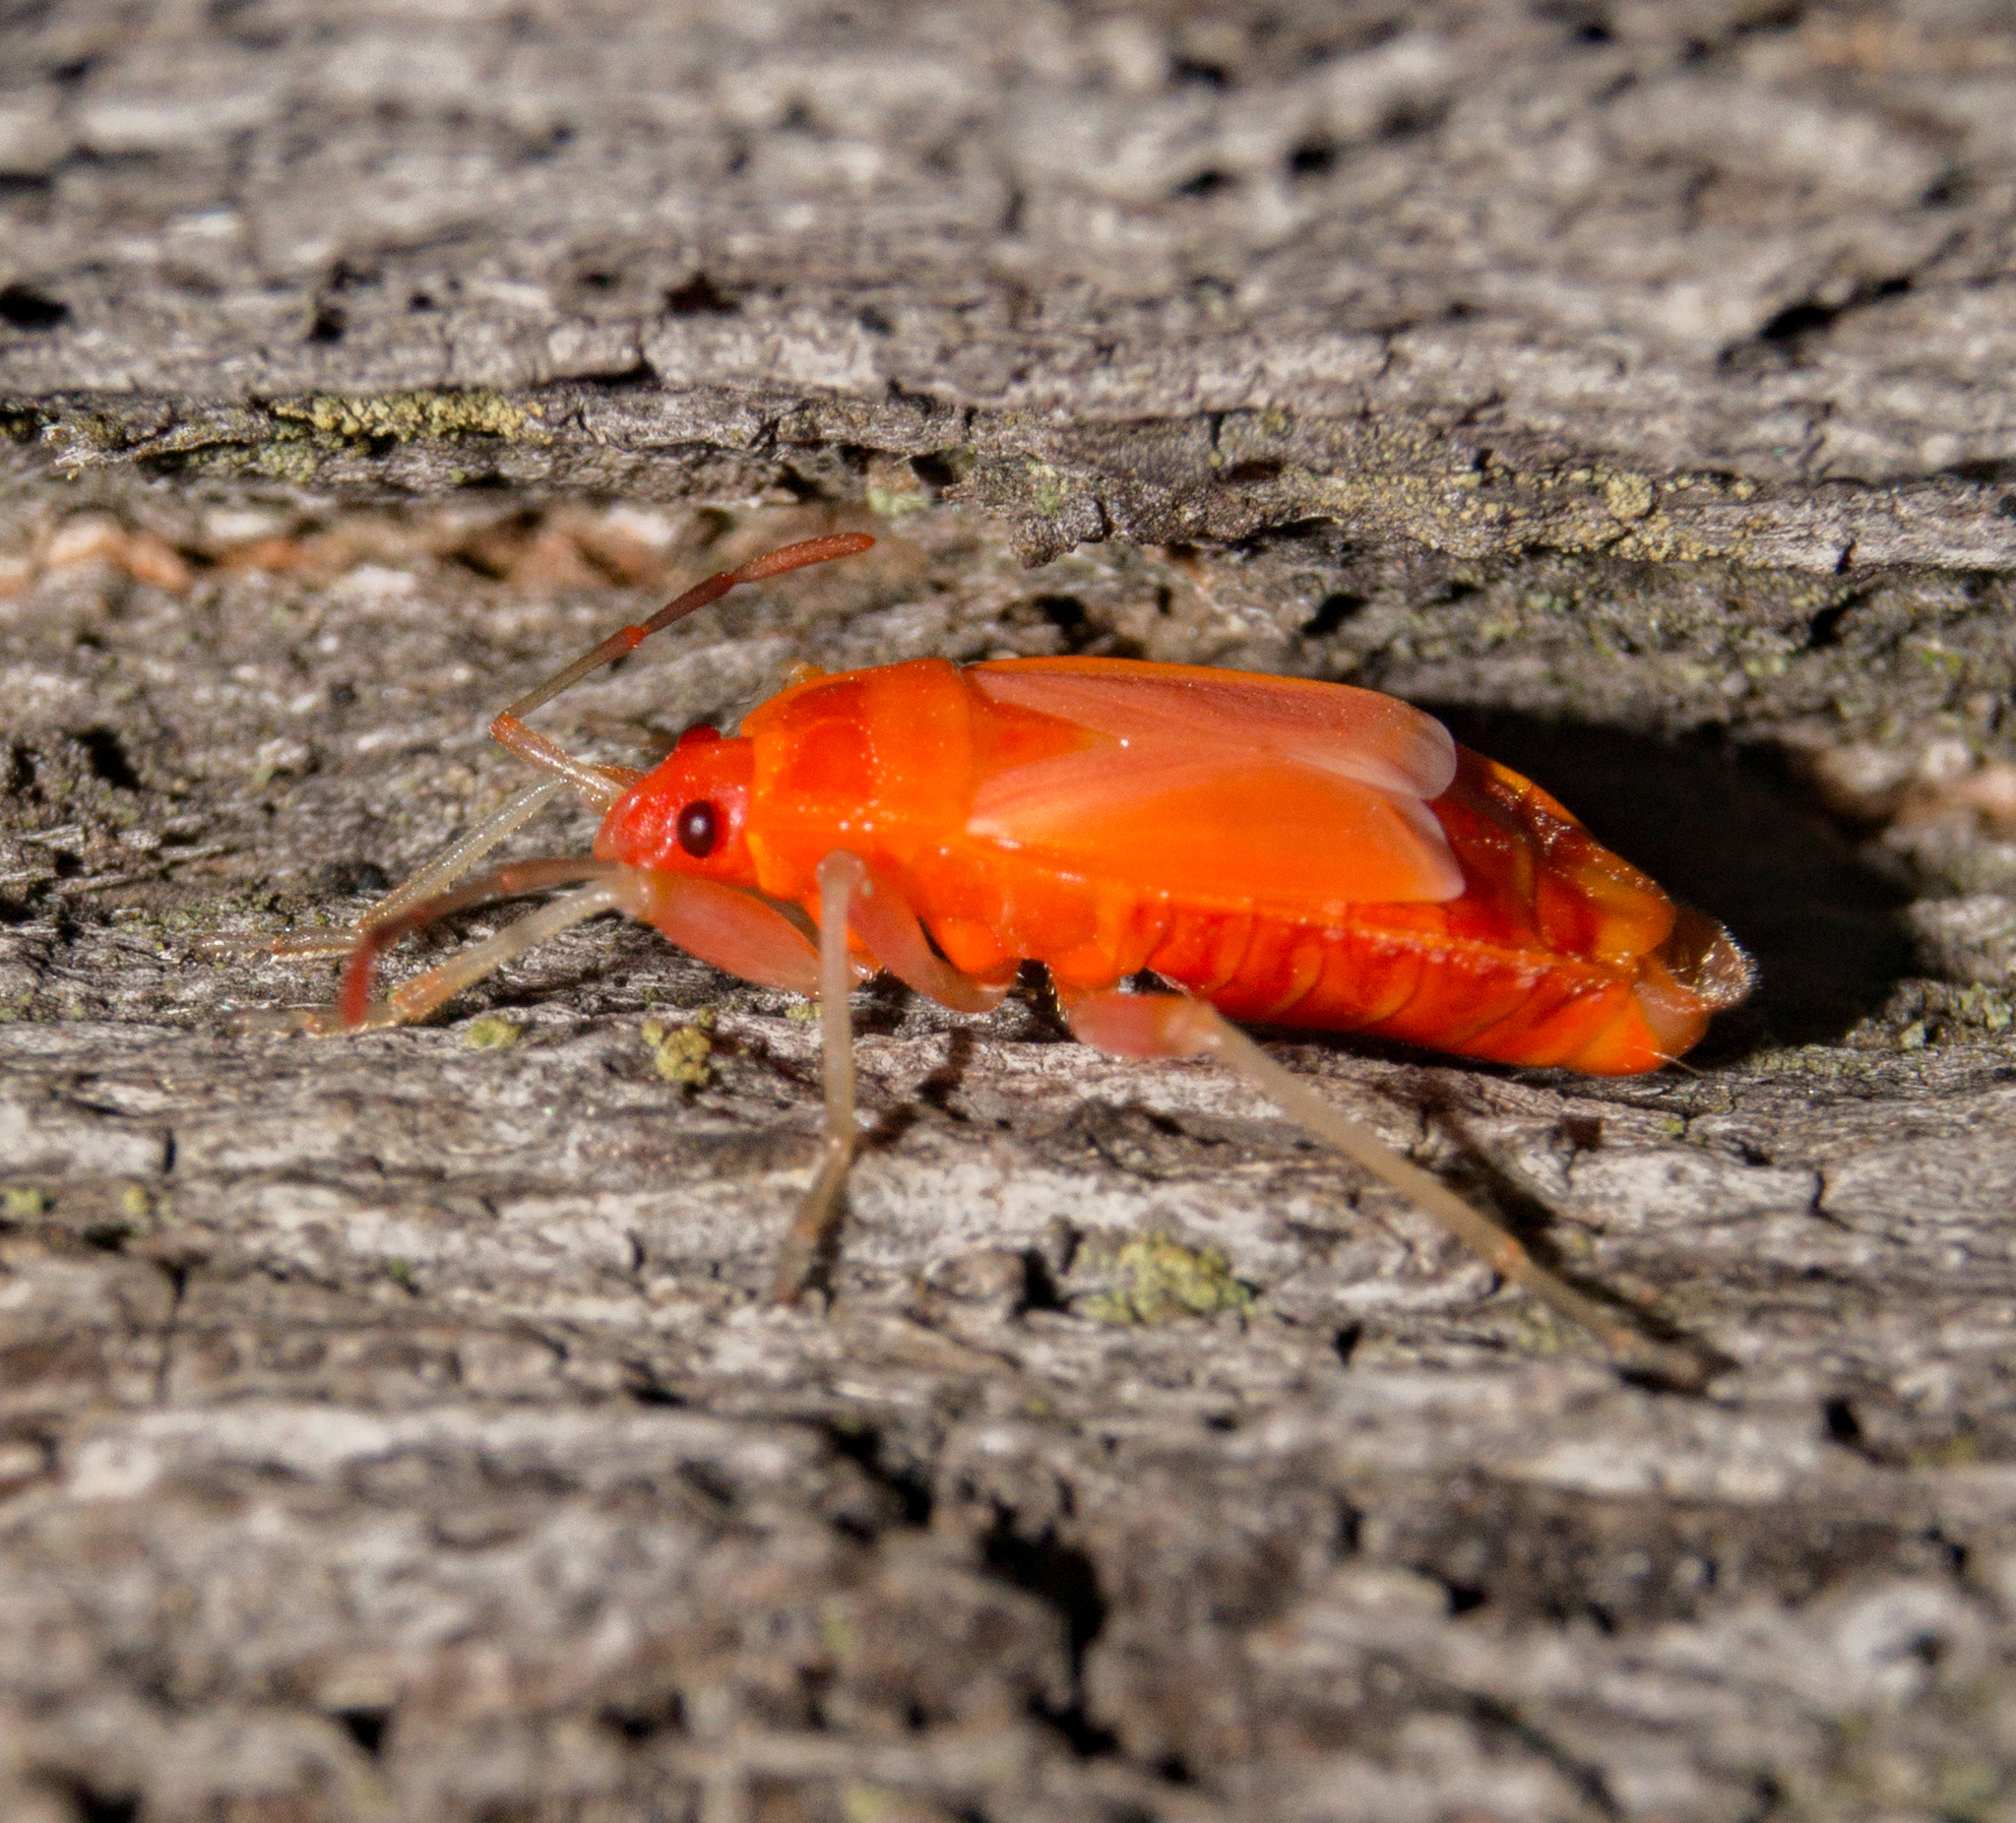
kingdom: Animalia
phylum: Arthropoda
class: Insecta
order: Hemiptera
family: Pyrrhocoridae
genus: Pyrrhocoris
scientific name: Pyrrhocoris apterus
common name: Firebug
